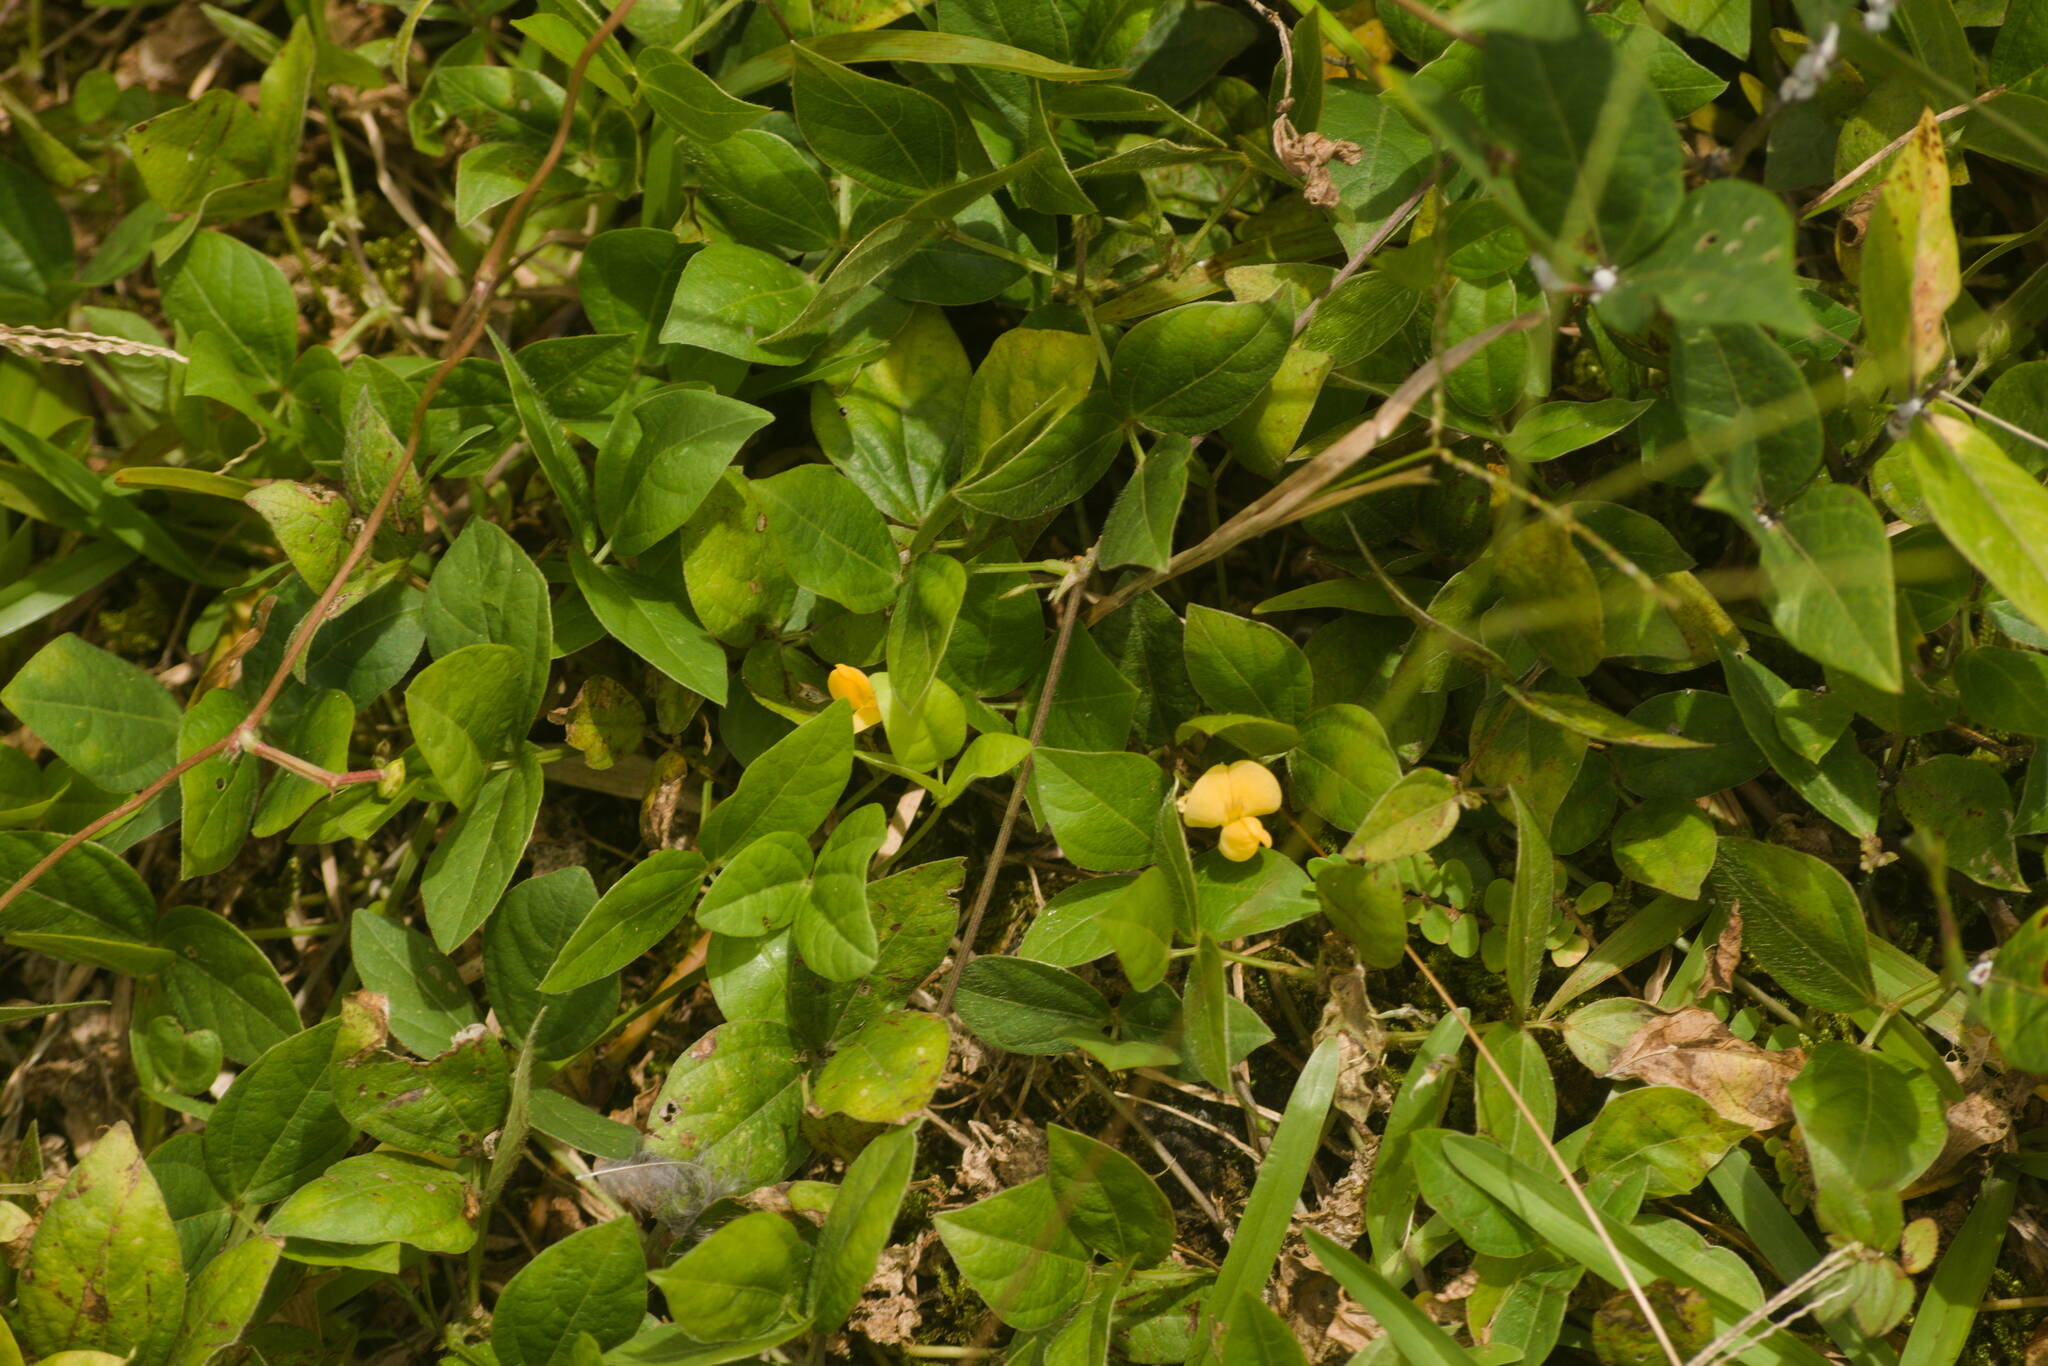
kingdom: Plantae
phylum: Tracheophyta
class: Magnoliopsida
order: Fabales
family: Fabaceae
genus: Vigna
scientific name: Vigna hosei
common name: Sarawak-bean
